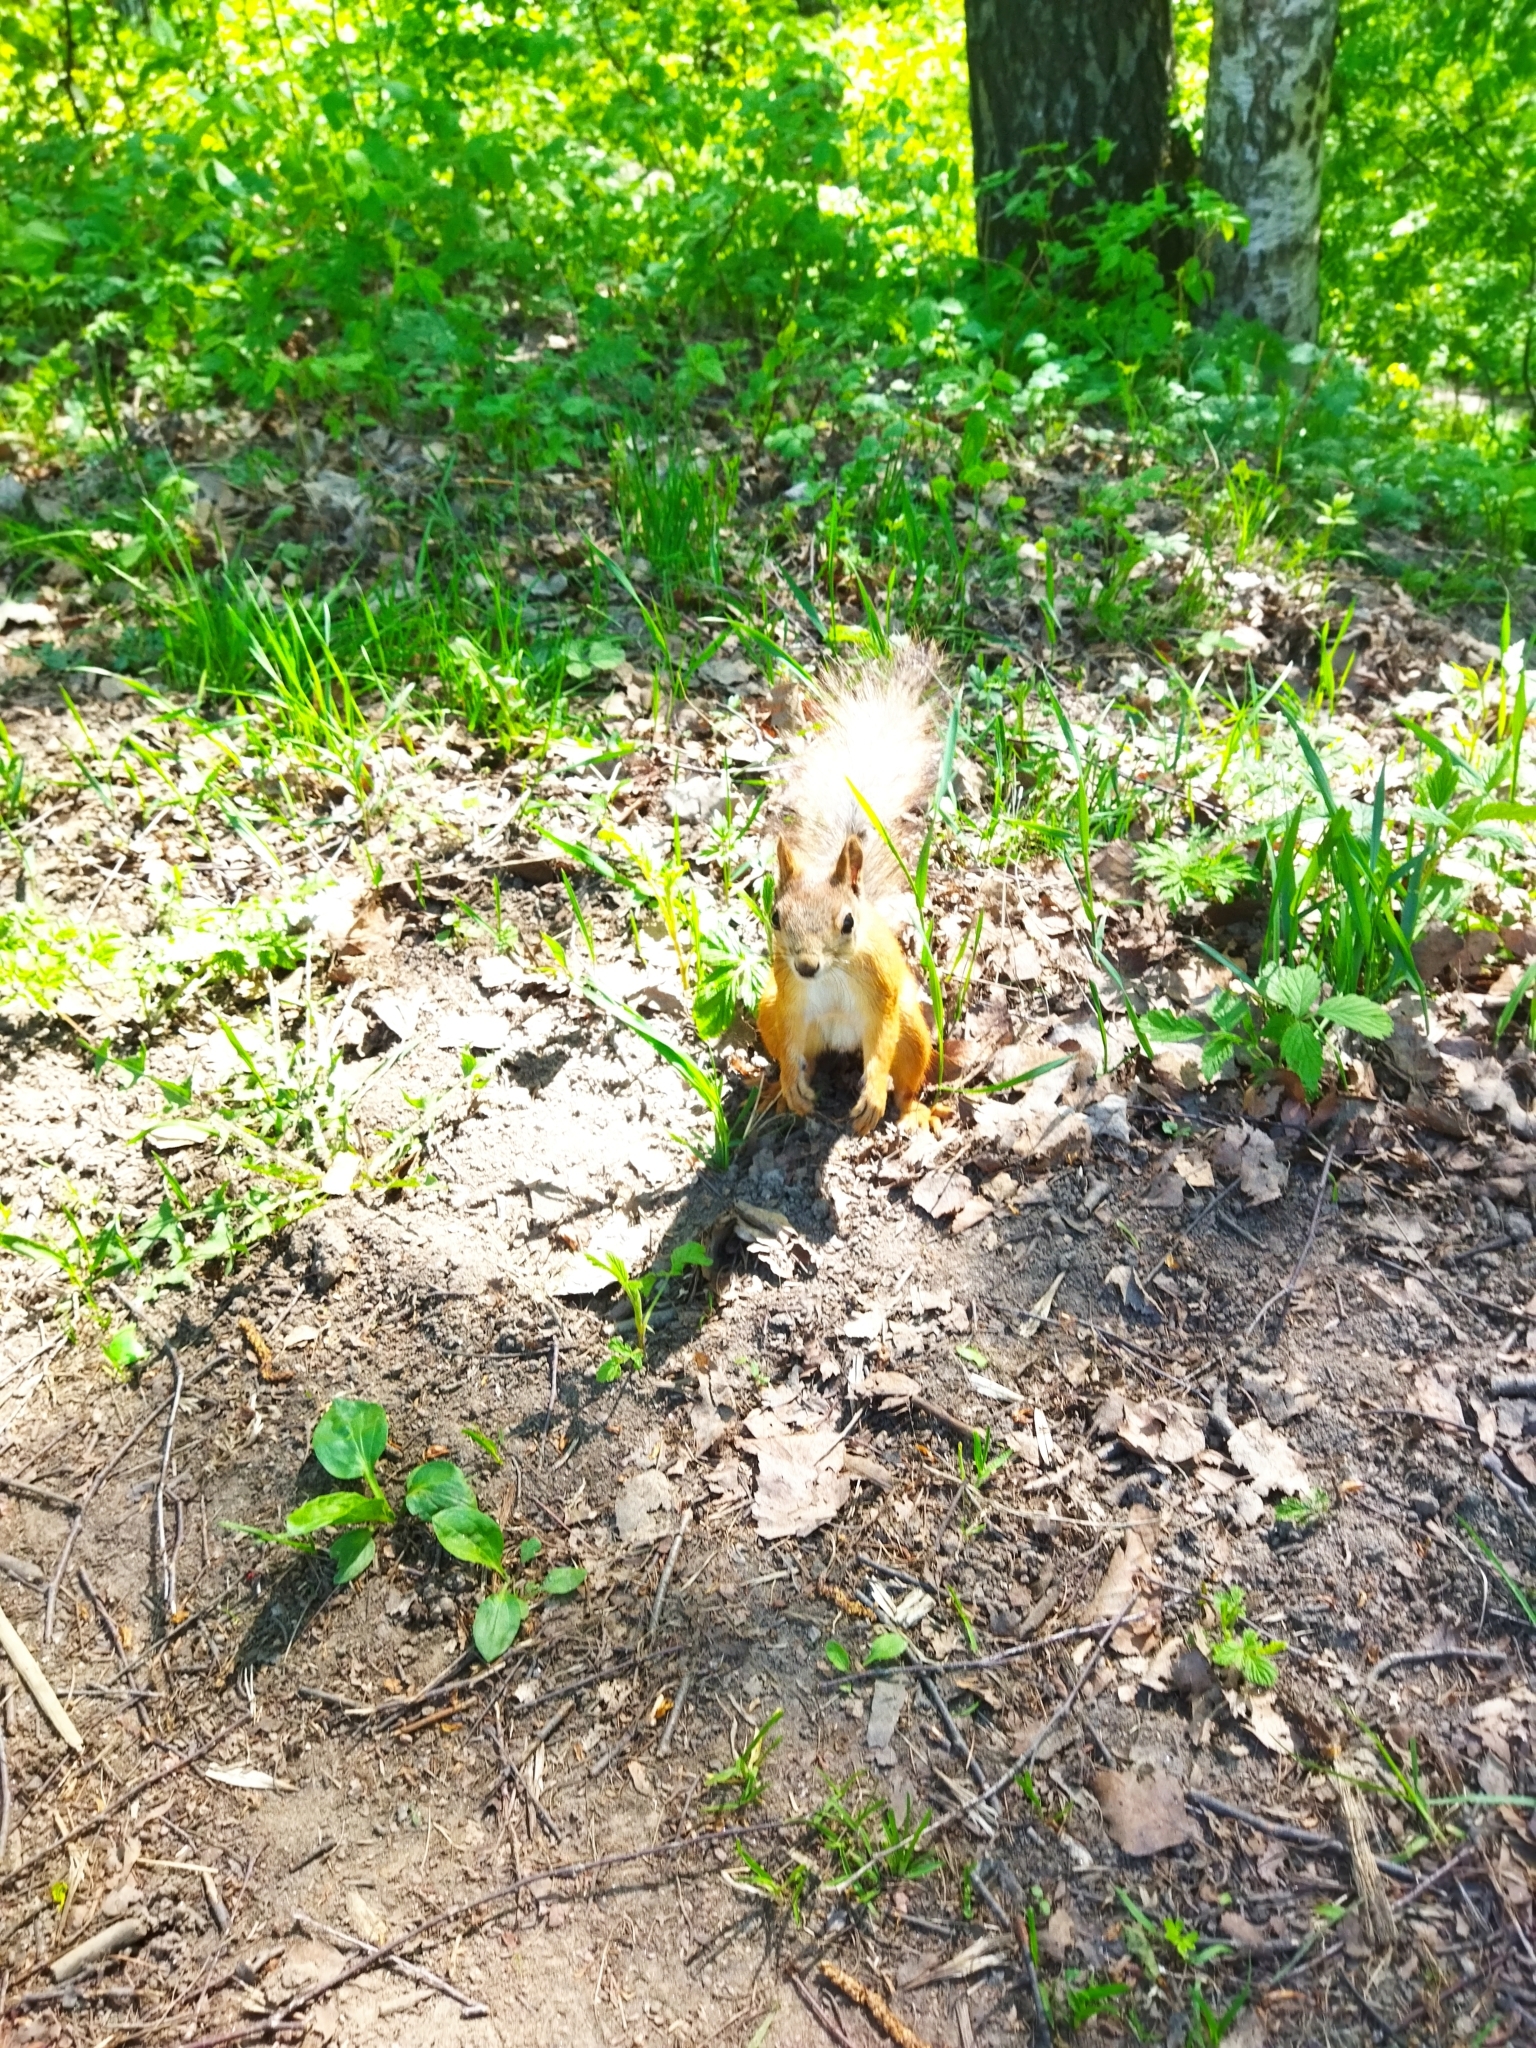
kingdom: Animalia
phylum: Chordata
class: Mammalia
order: Rodentia
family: Sciuridae
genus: Sciurus
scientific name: Sciurus vulgaris
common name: Eurasian red squirrel
